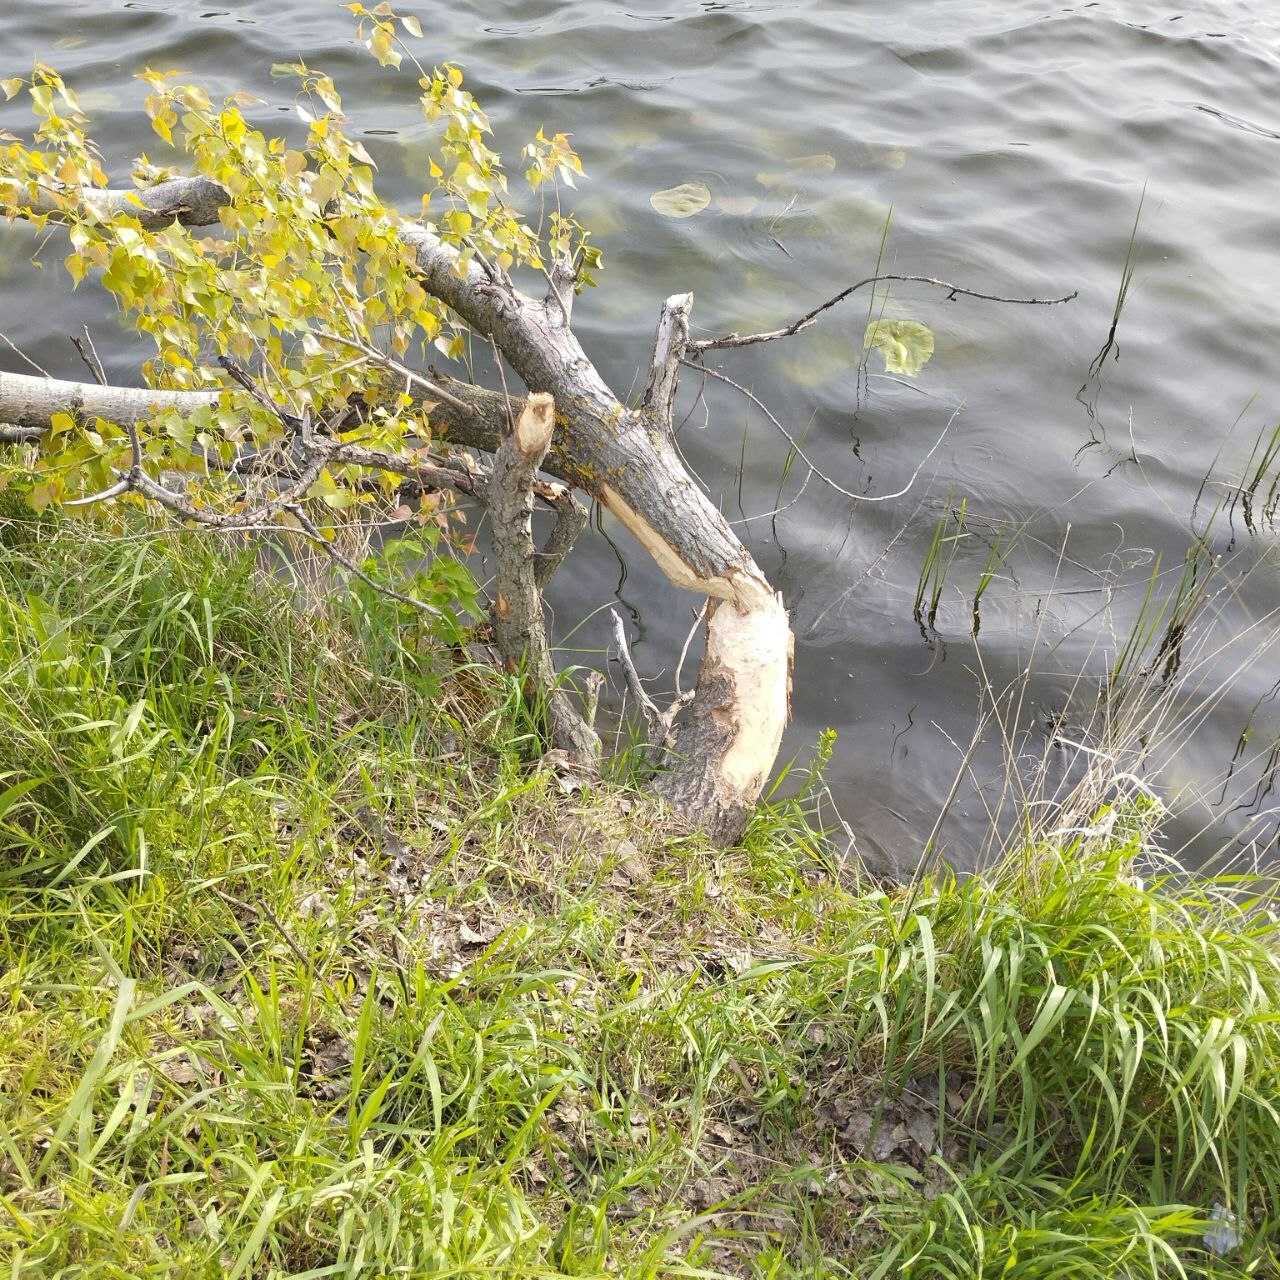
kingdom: Animalia
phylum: Chordata
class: Mammalia
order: Rodentia
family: Castoridae
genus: Castor
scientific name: Castor fiber
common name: Eurasian beaver
